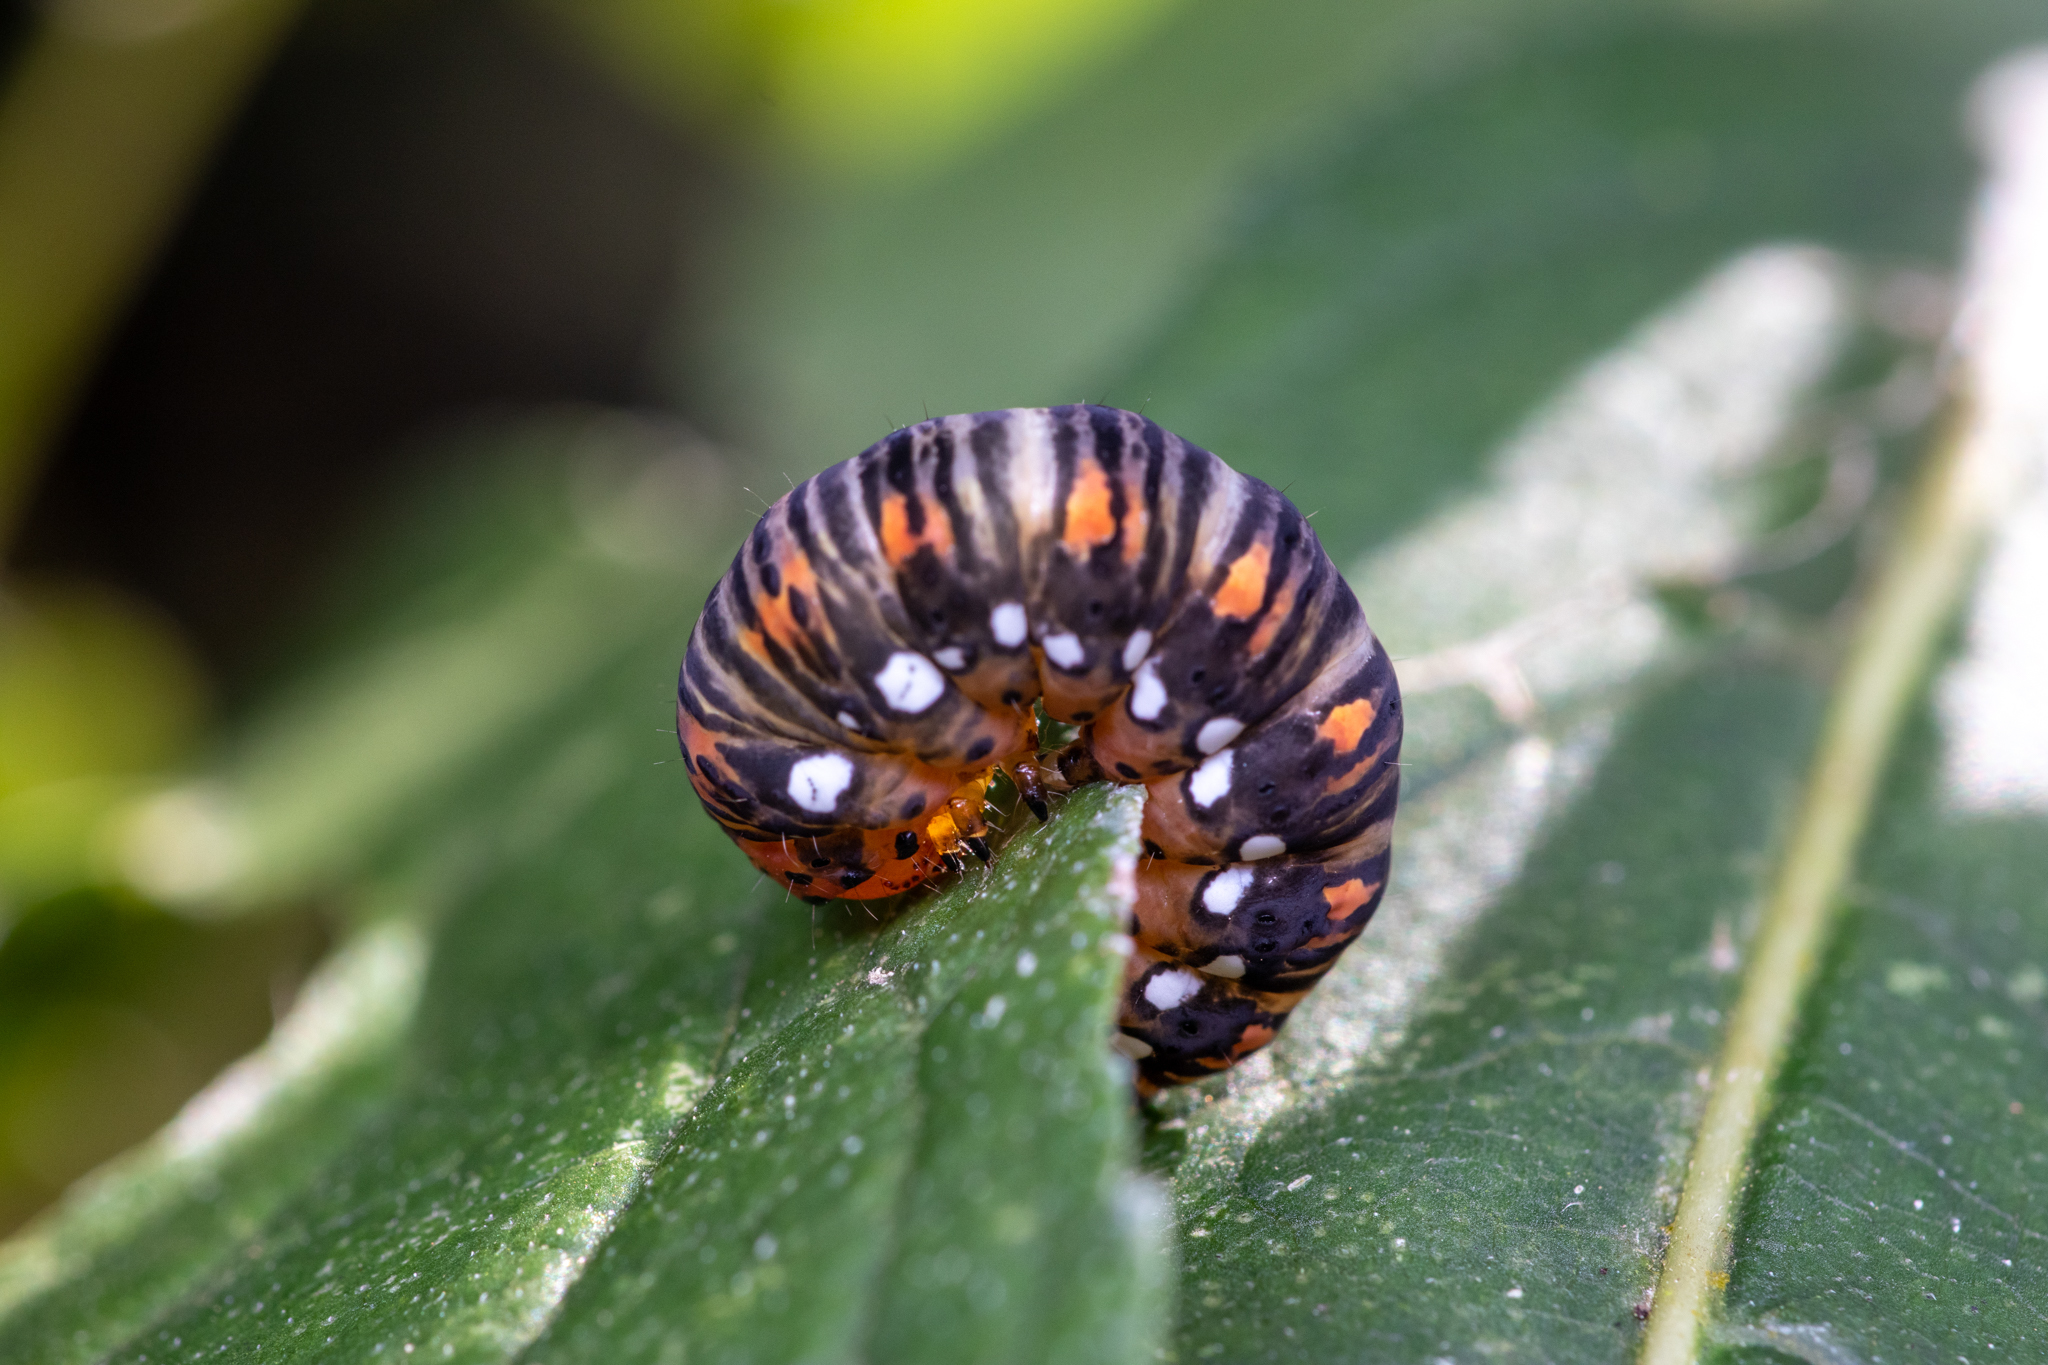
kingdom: Animalia
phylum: Arthropoda
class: Insecta
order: Lepidoptera
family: Noctuidae
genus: Basilodes
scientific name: Basilodes pepita
